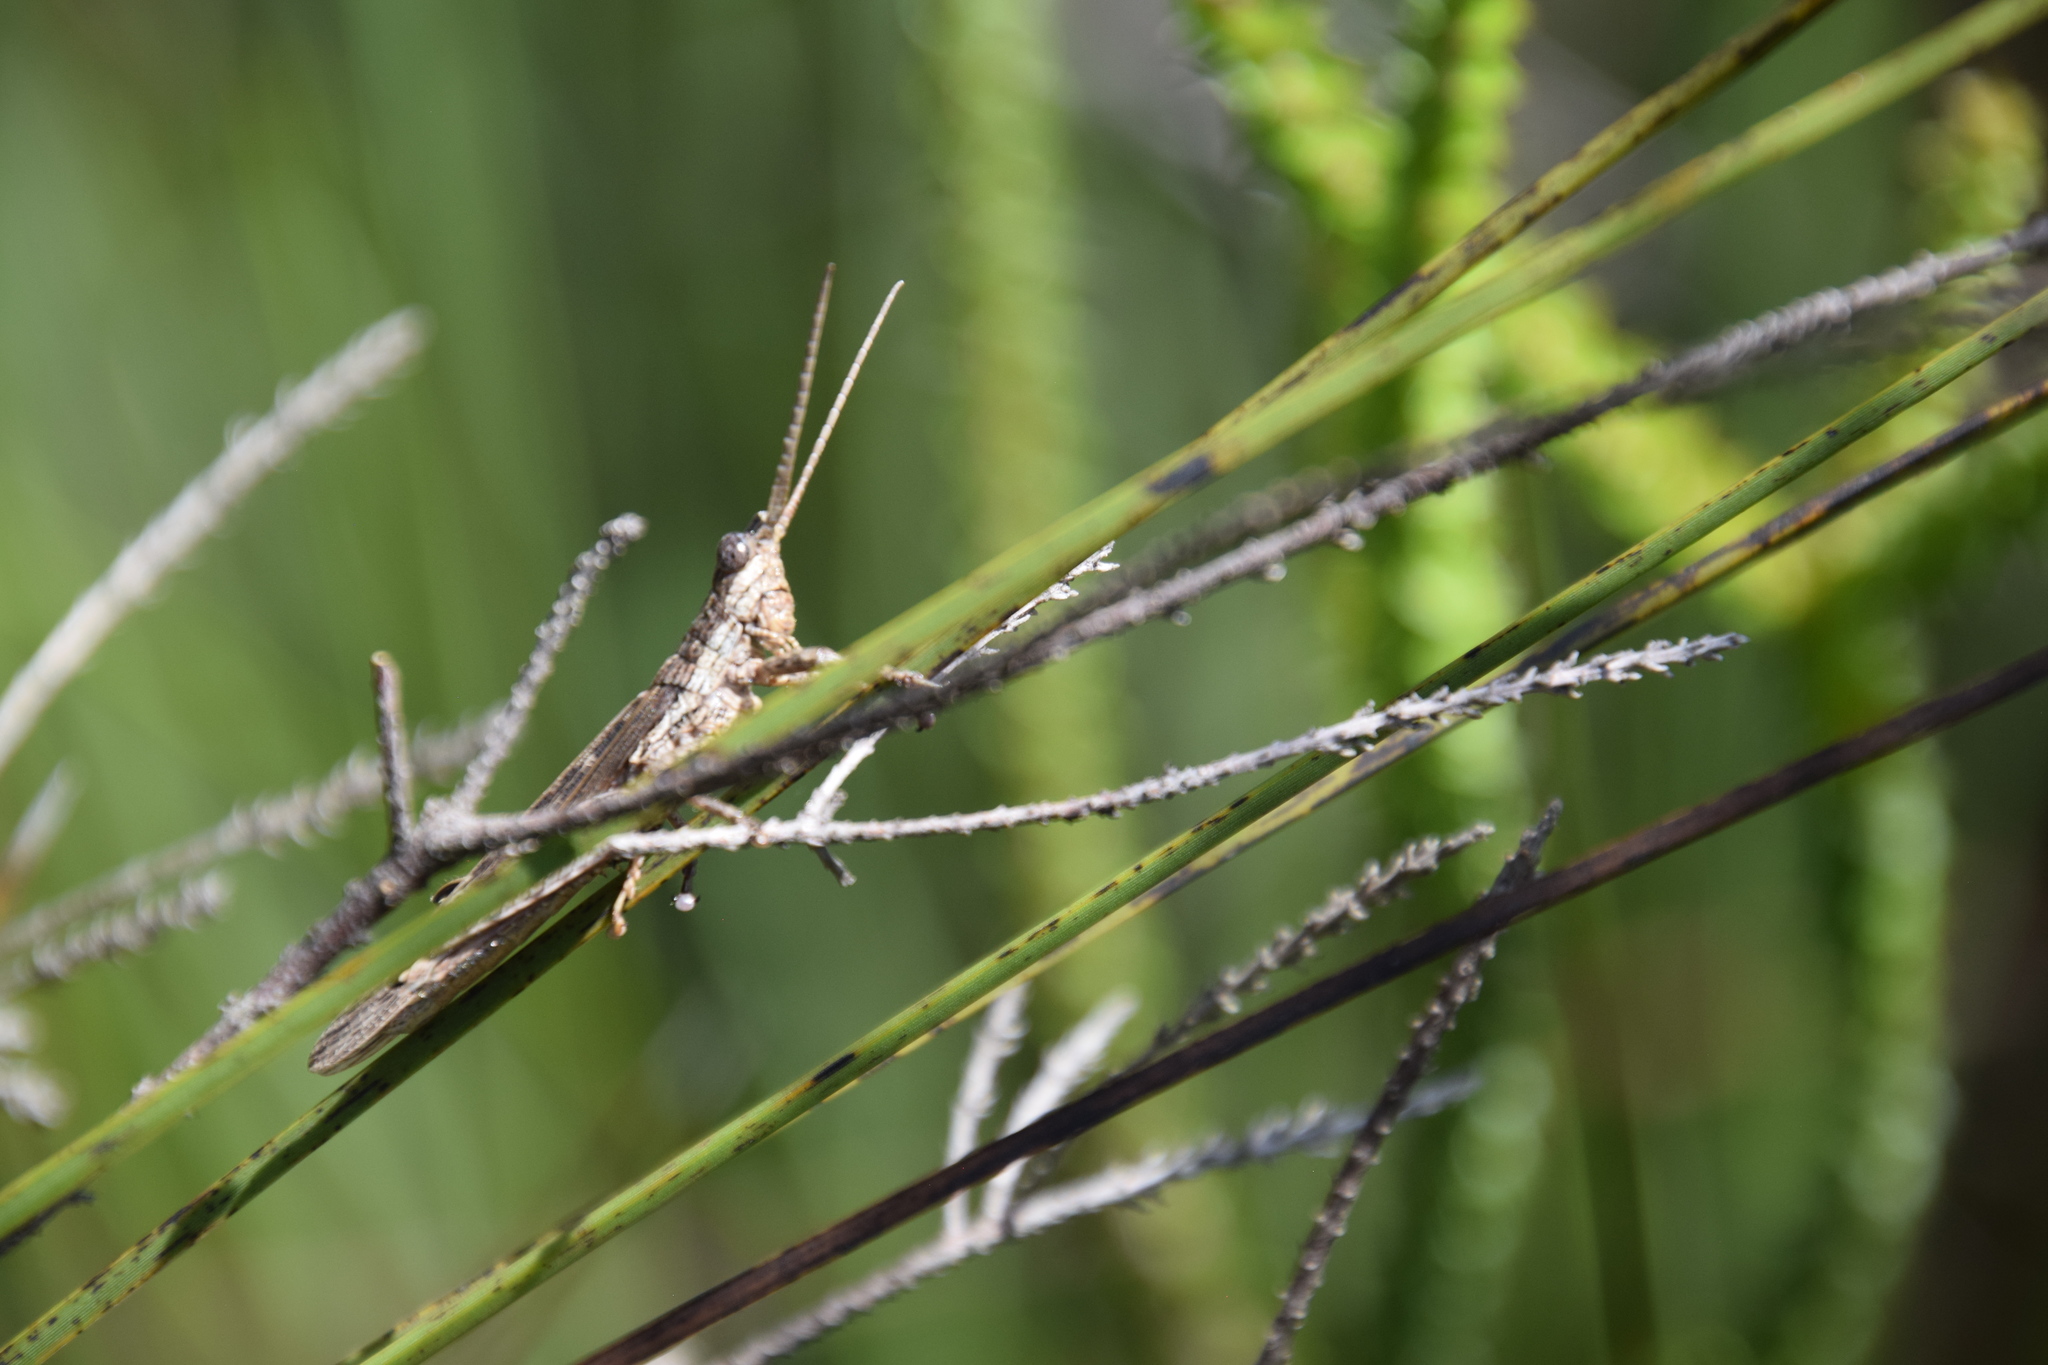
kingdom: Animalia
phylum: Arthropoda
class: Insecta
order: Orthoptera
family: Acrididae
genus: Coryphistes
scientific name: Coryphistes ruricola
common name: Bark-mimicking grasshopper
